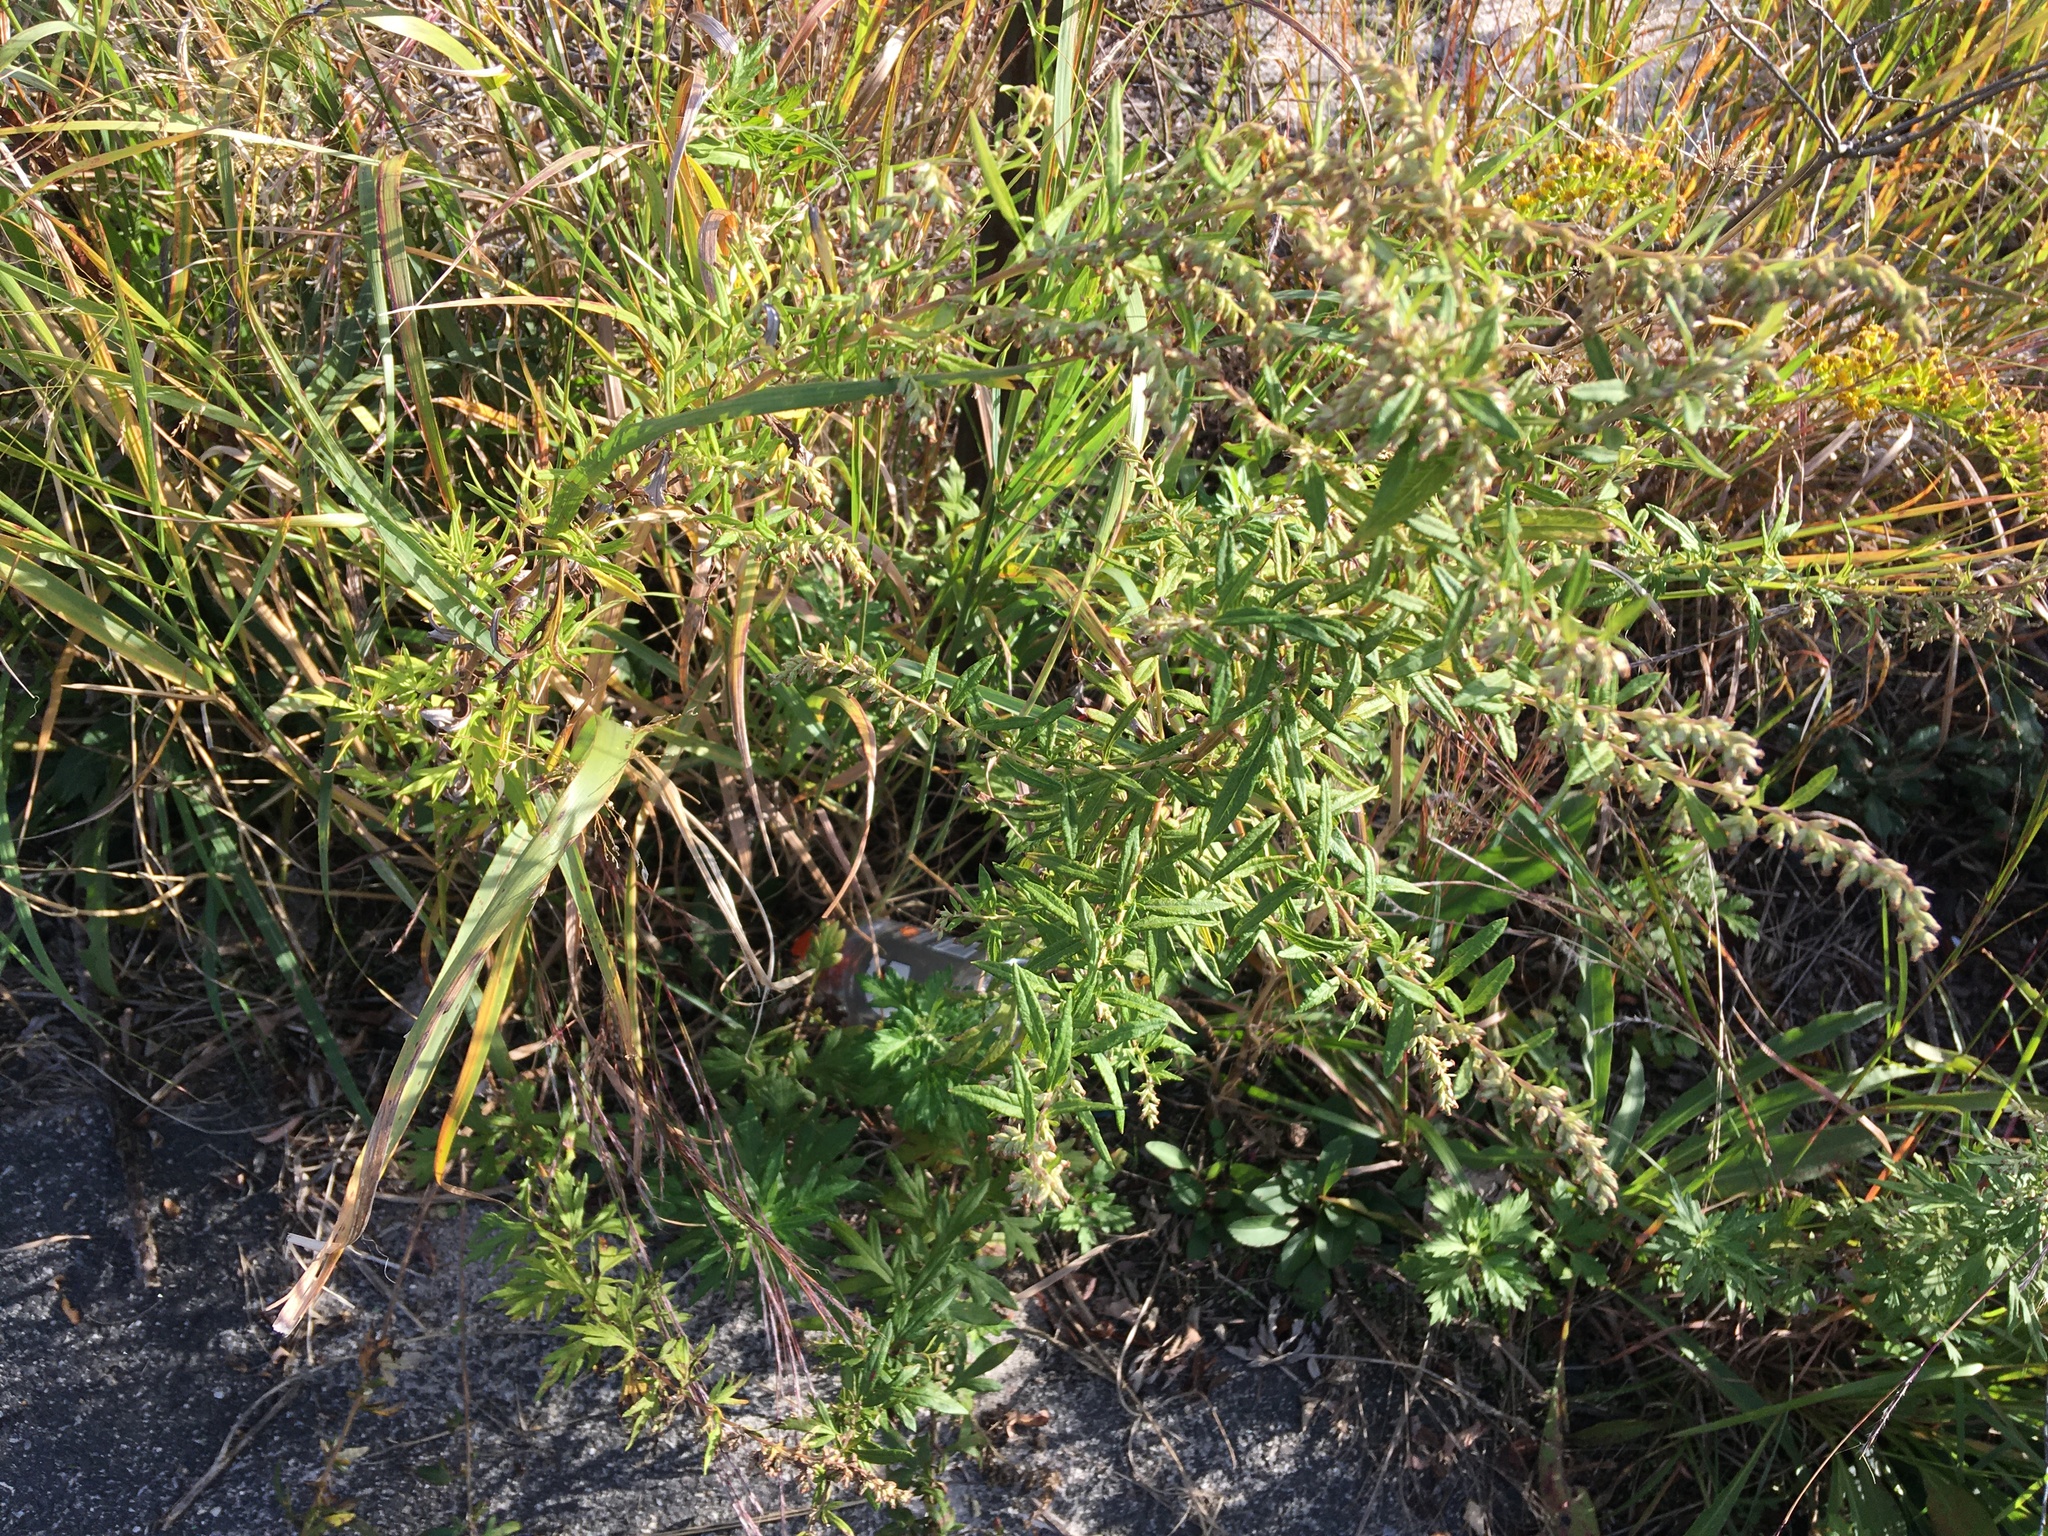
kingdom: Plantae
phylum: Tracheophyta
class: Magnoliopsida
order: Asterales
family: Asteraceae
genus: Artemisia
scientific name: Artemisia vulgaris
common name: Mugwort
